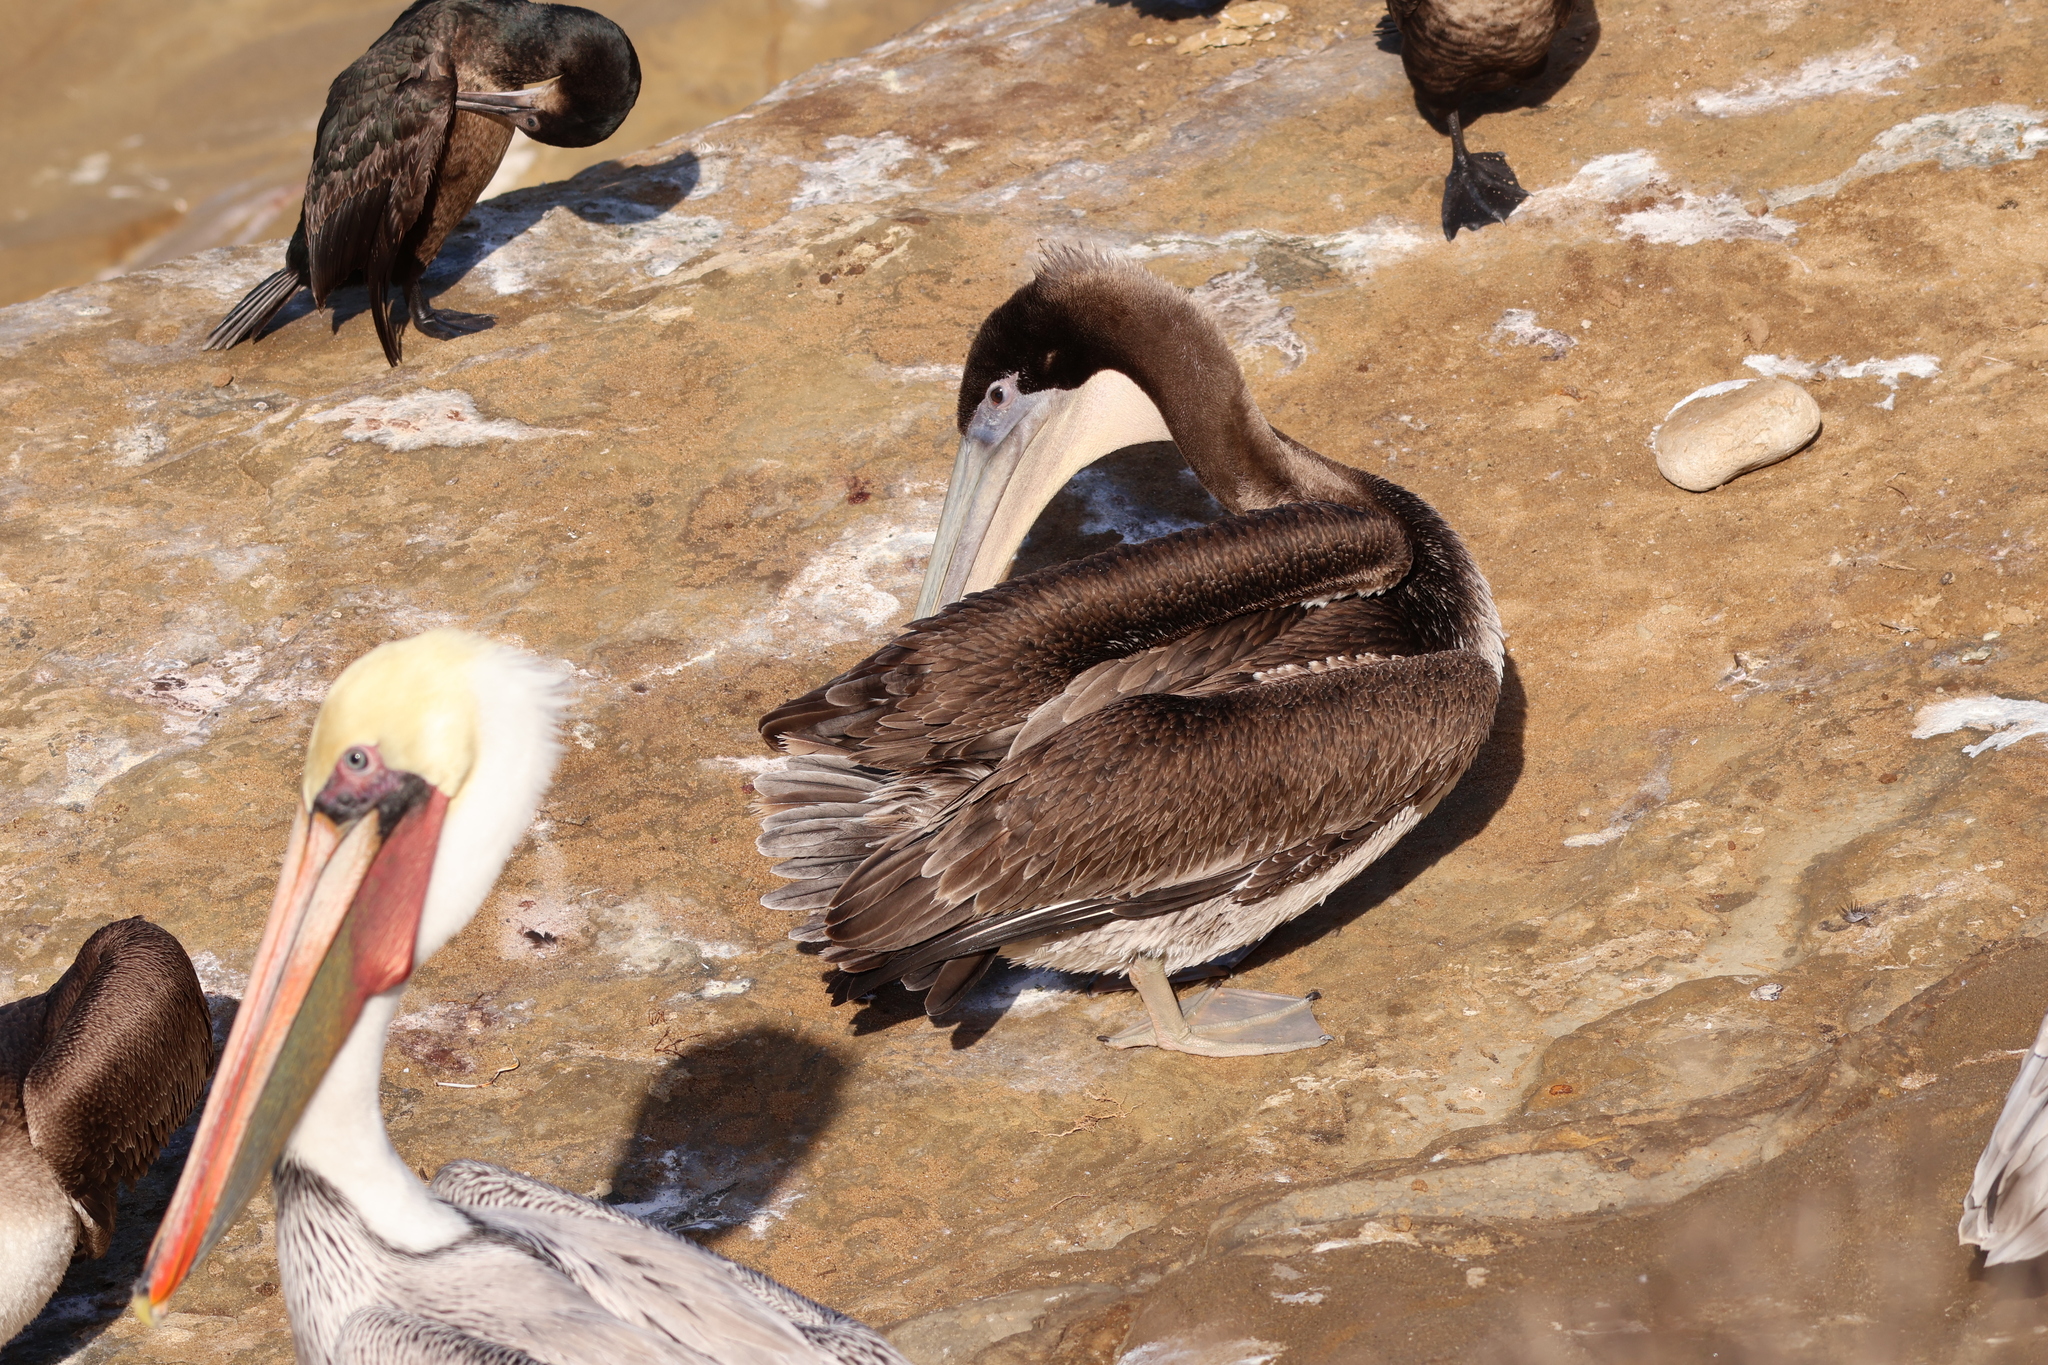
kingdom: Animalia
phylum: Chordata
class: Aves
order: Pelecaniformes
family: Pelecanidae
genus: Pelecanus
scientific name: Pelecanus occidentalis
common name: Brown pelican
